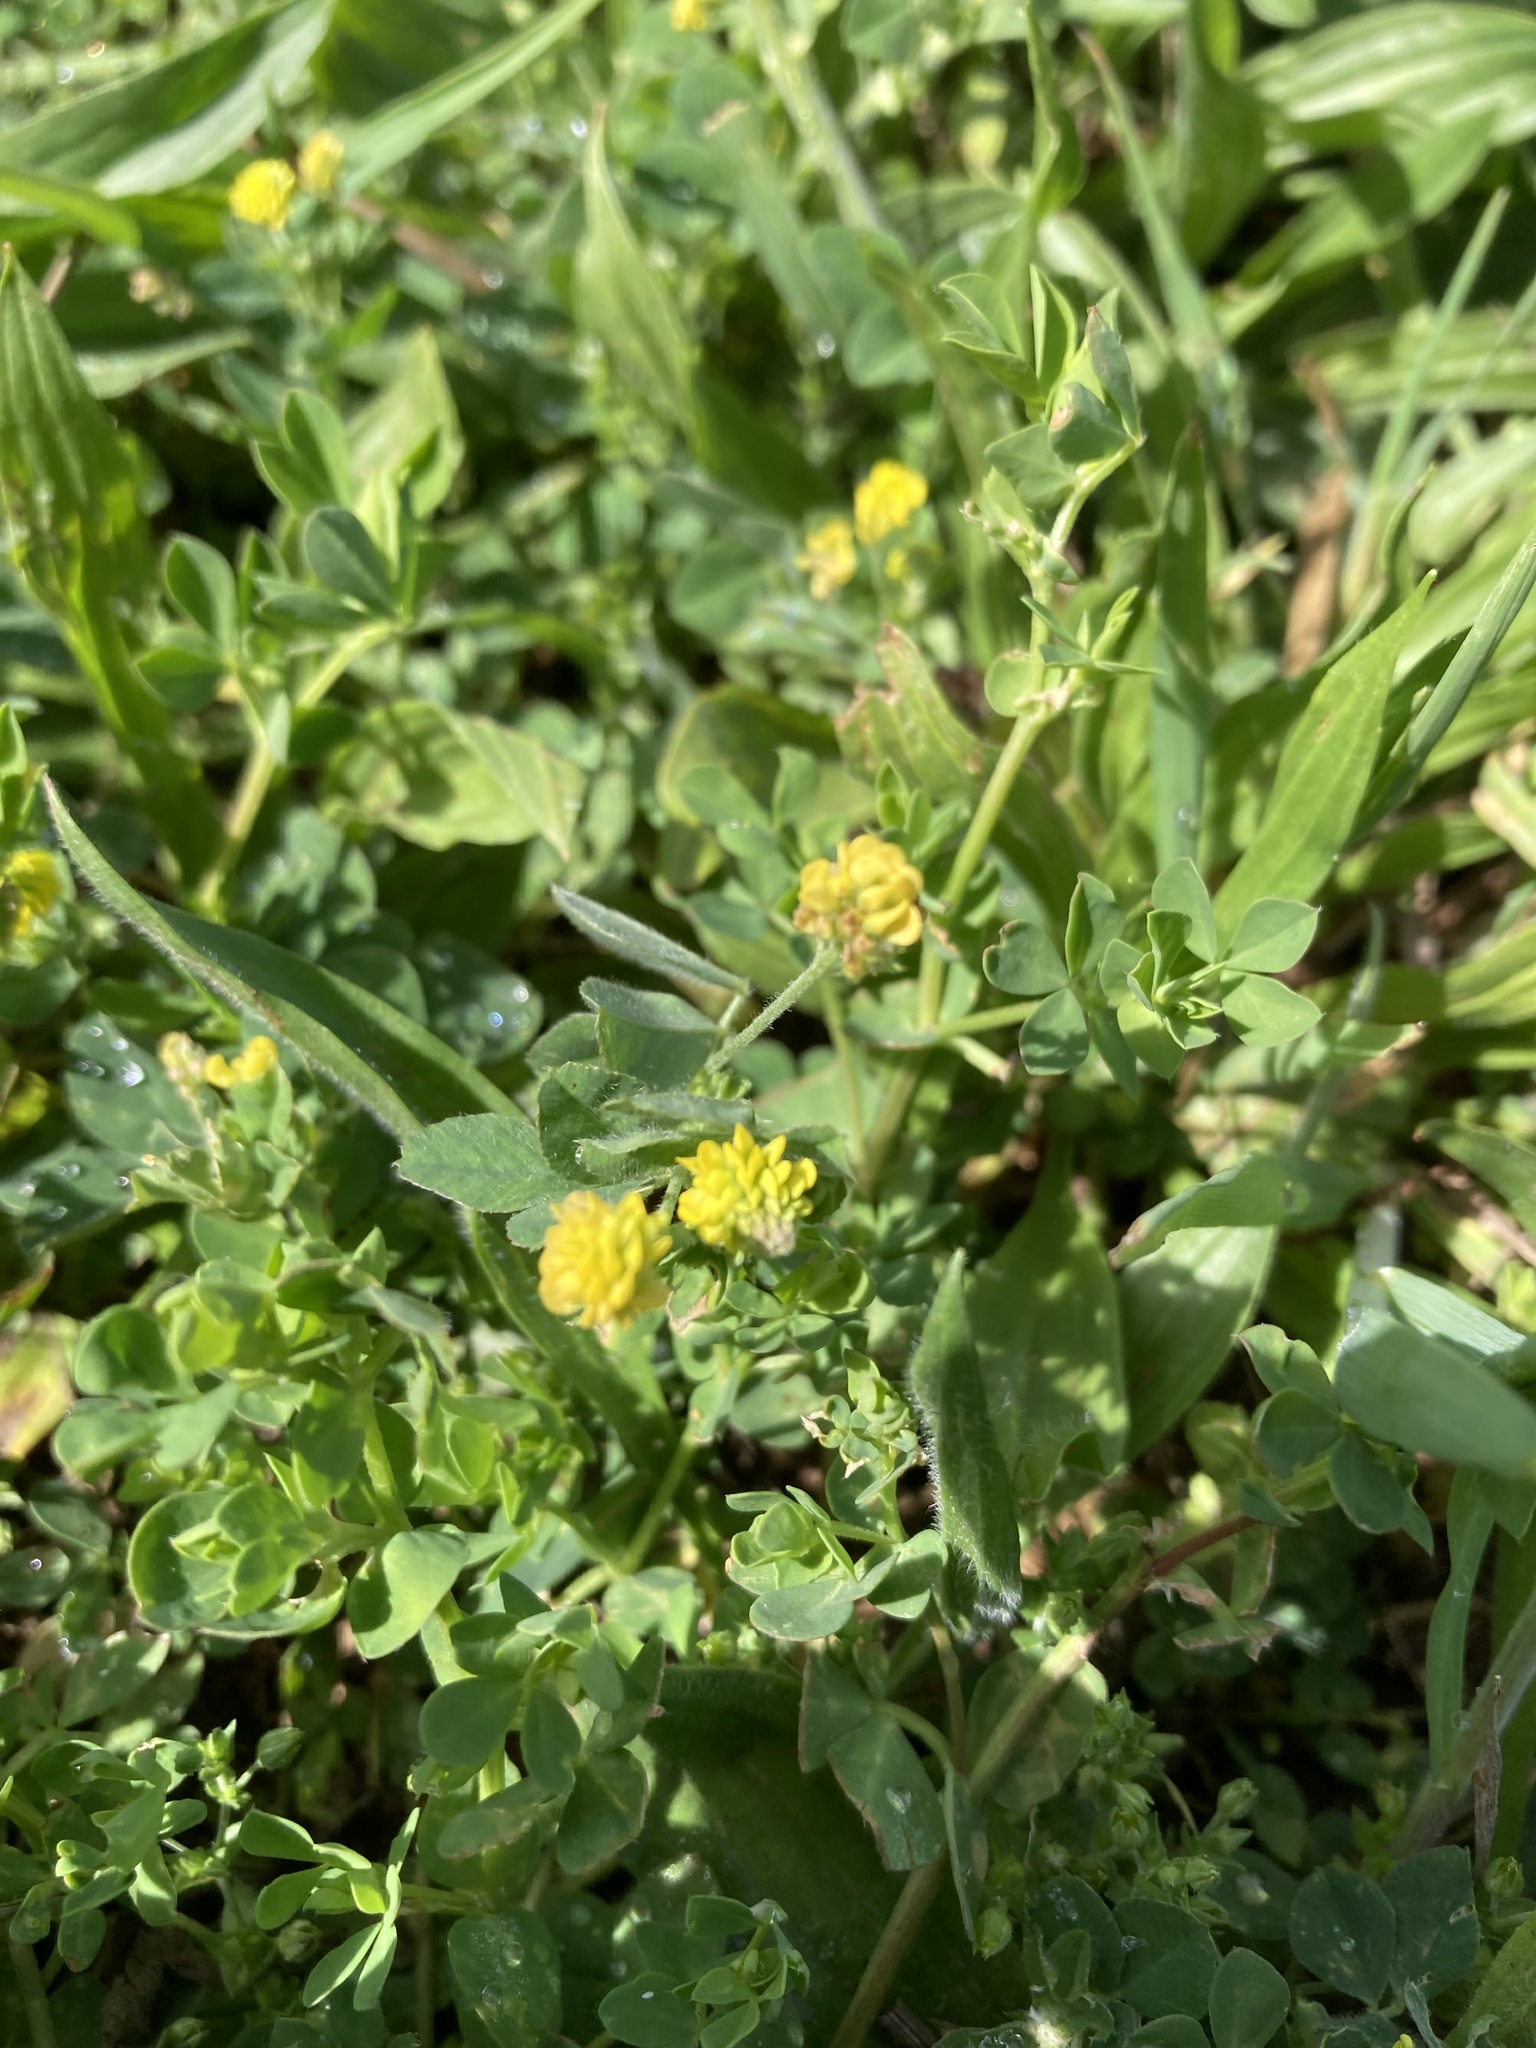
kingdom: Plantae
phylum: Tracheophyta
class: Magnoliopsida
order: Fabales
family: Fabaceae
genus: Medicago
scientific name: Medicago lupulina
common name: Black medick
